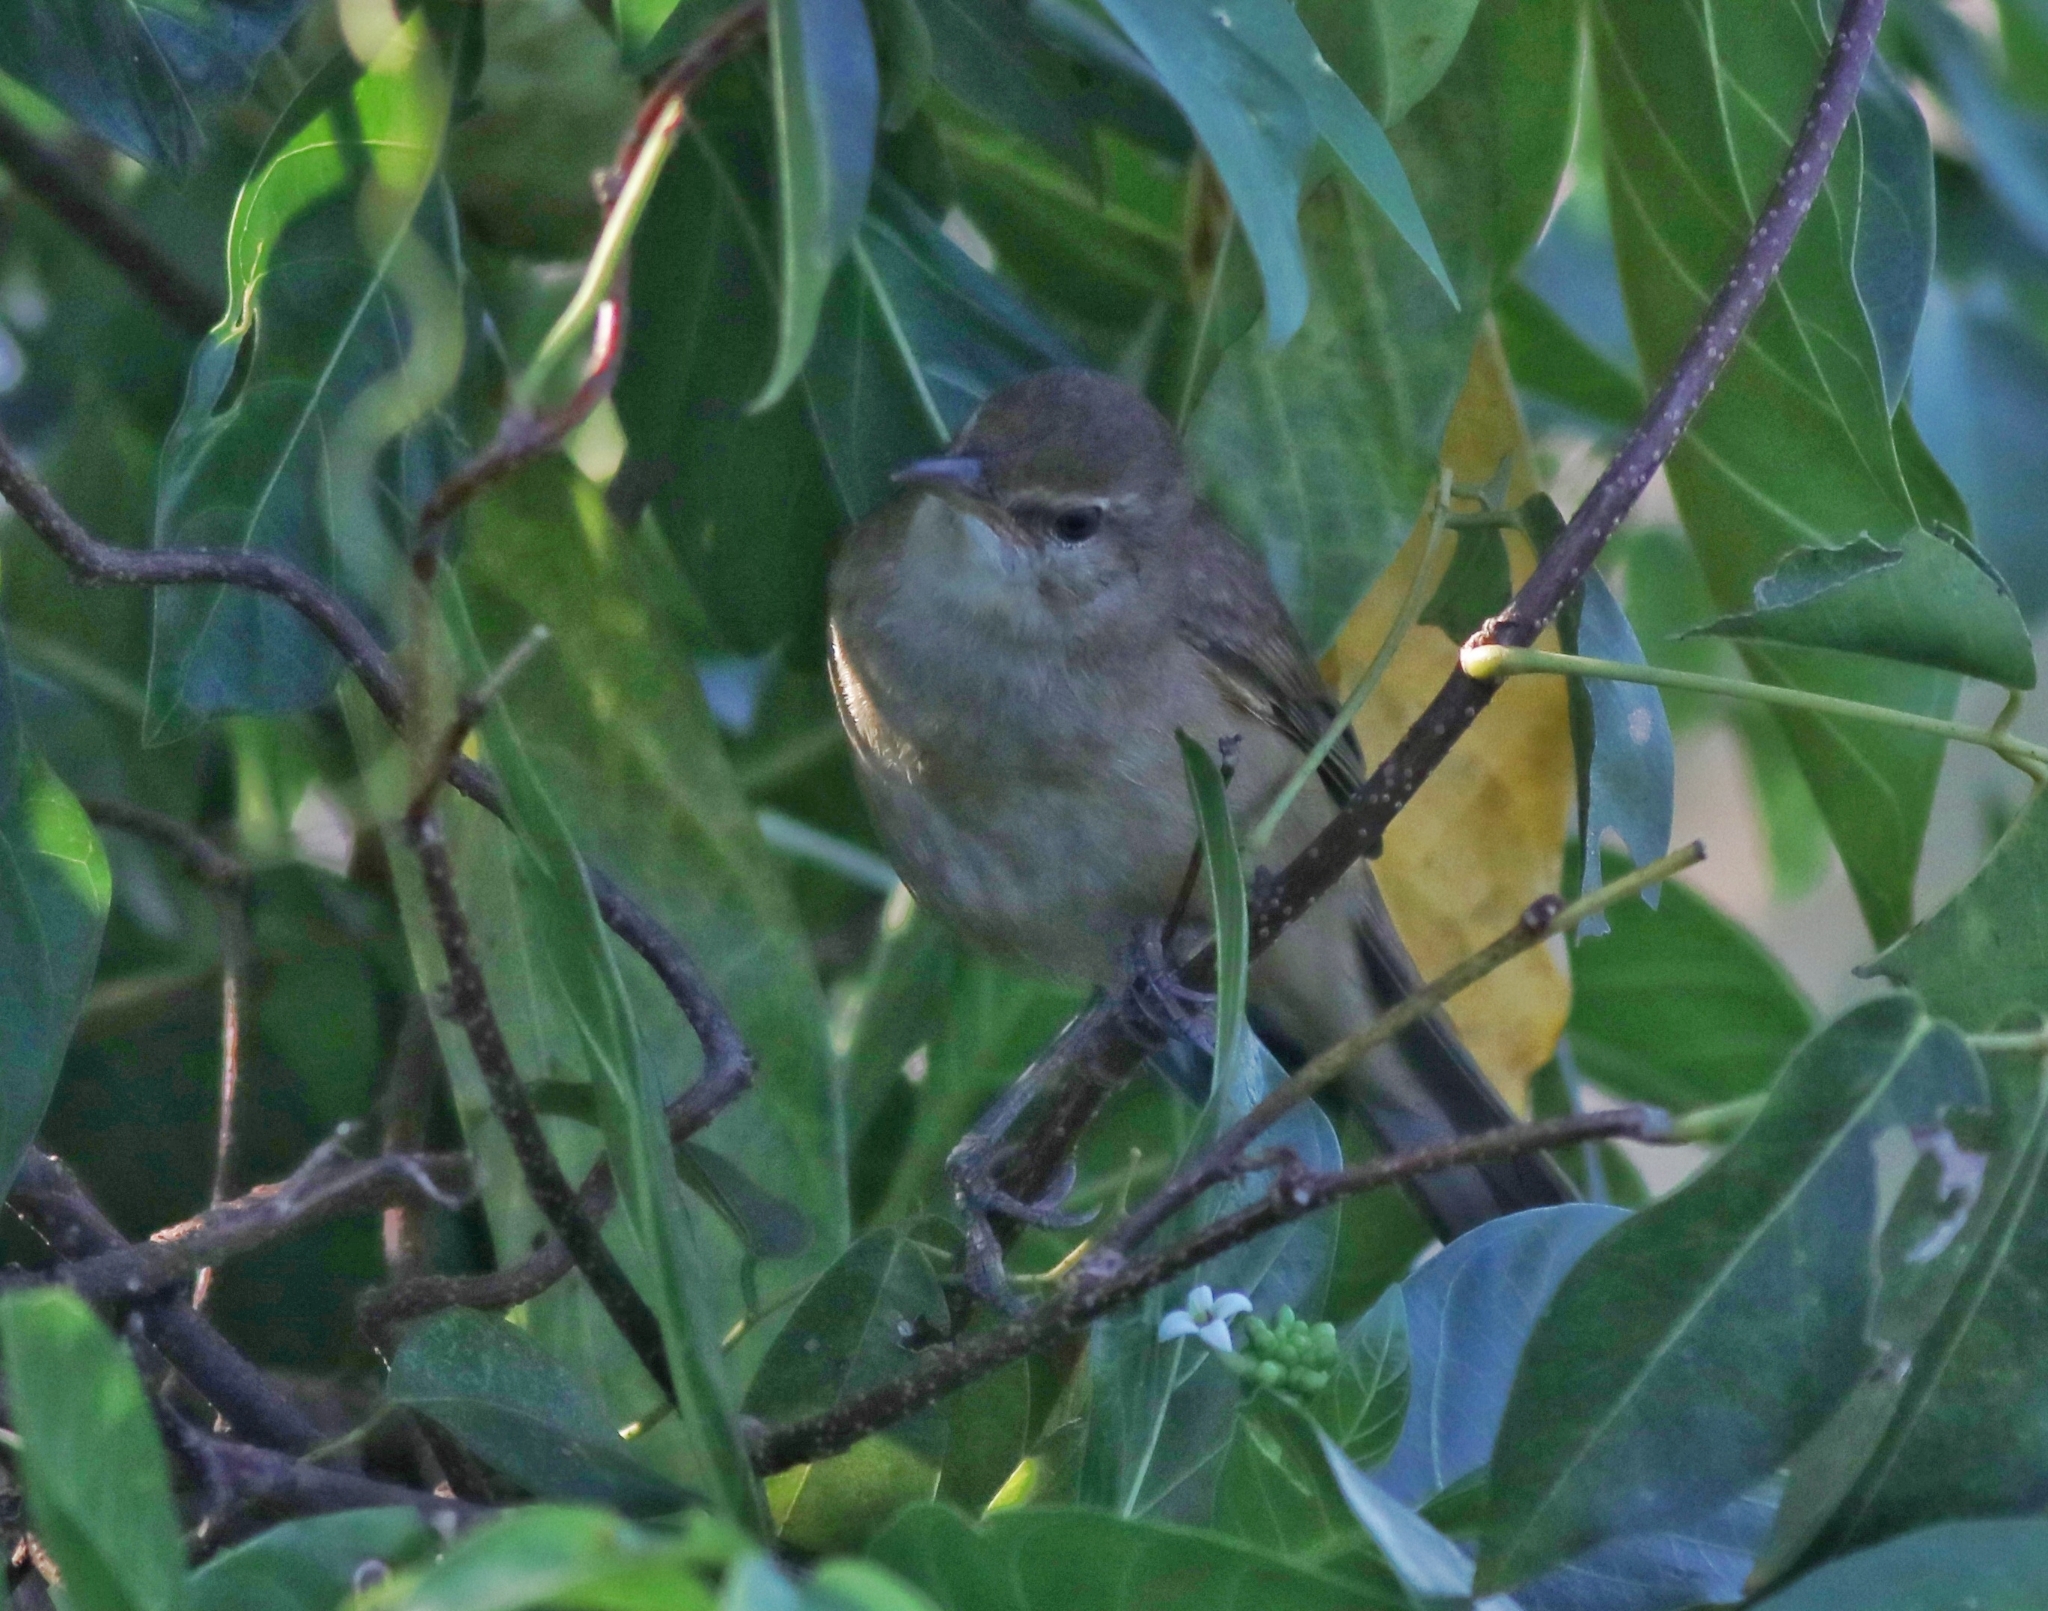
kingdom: Animalia
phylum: Chordata
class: Aves
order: Passeriformes
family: Acrocephalidae
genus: Acrocephalus
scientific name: Acrocephalus stentoreus
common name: Clamorous reed warbler
